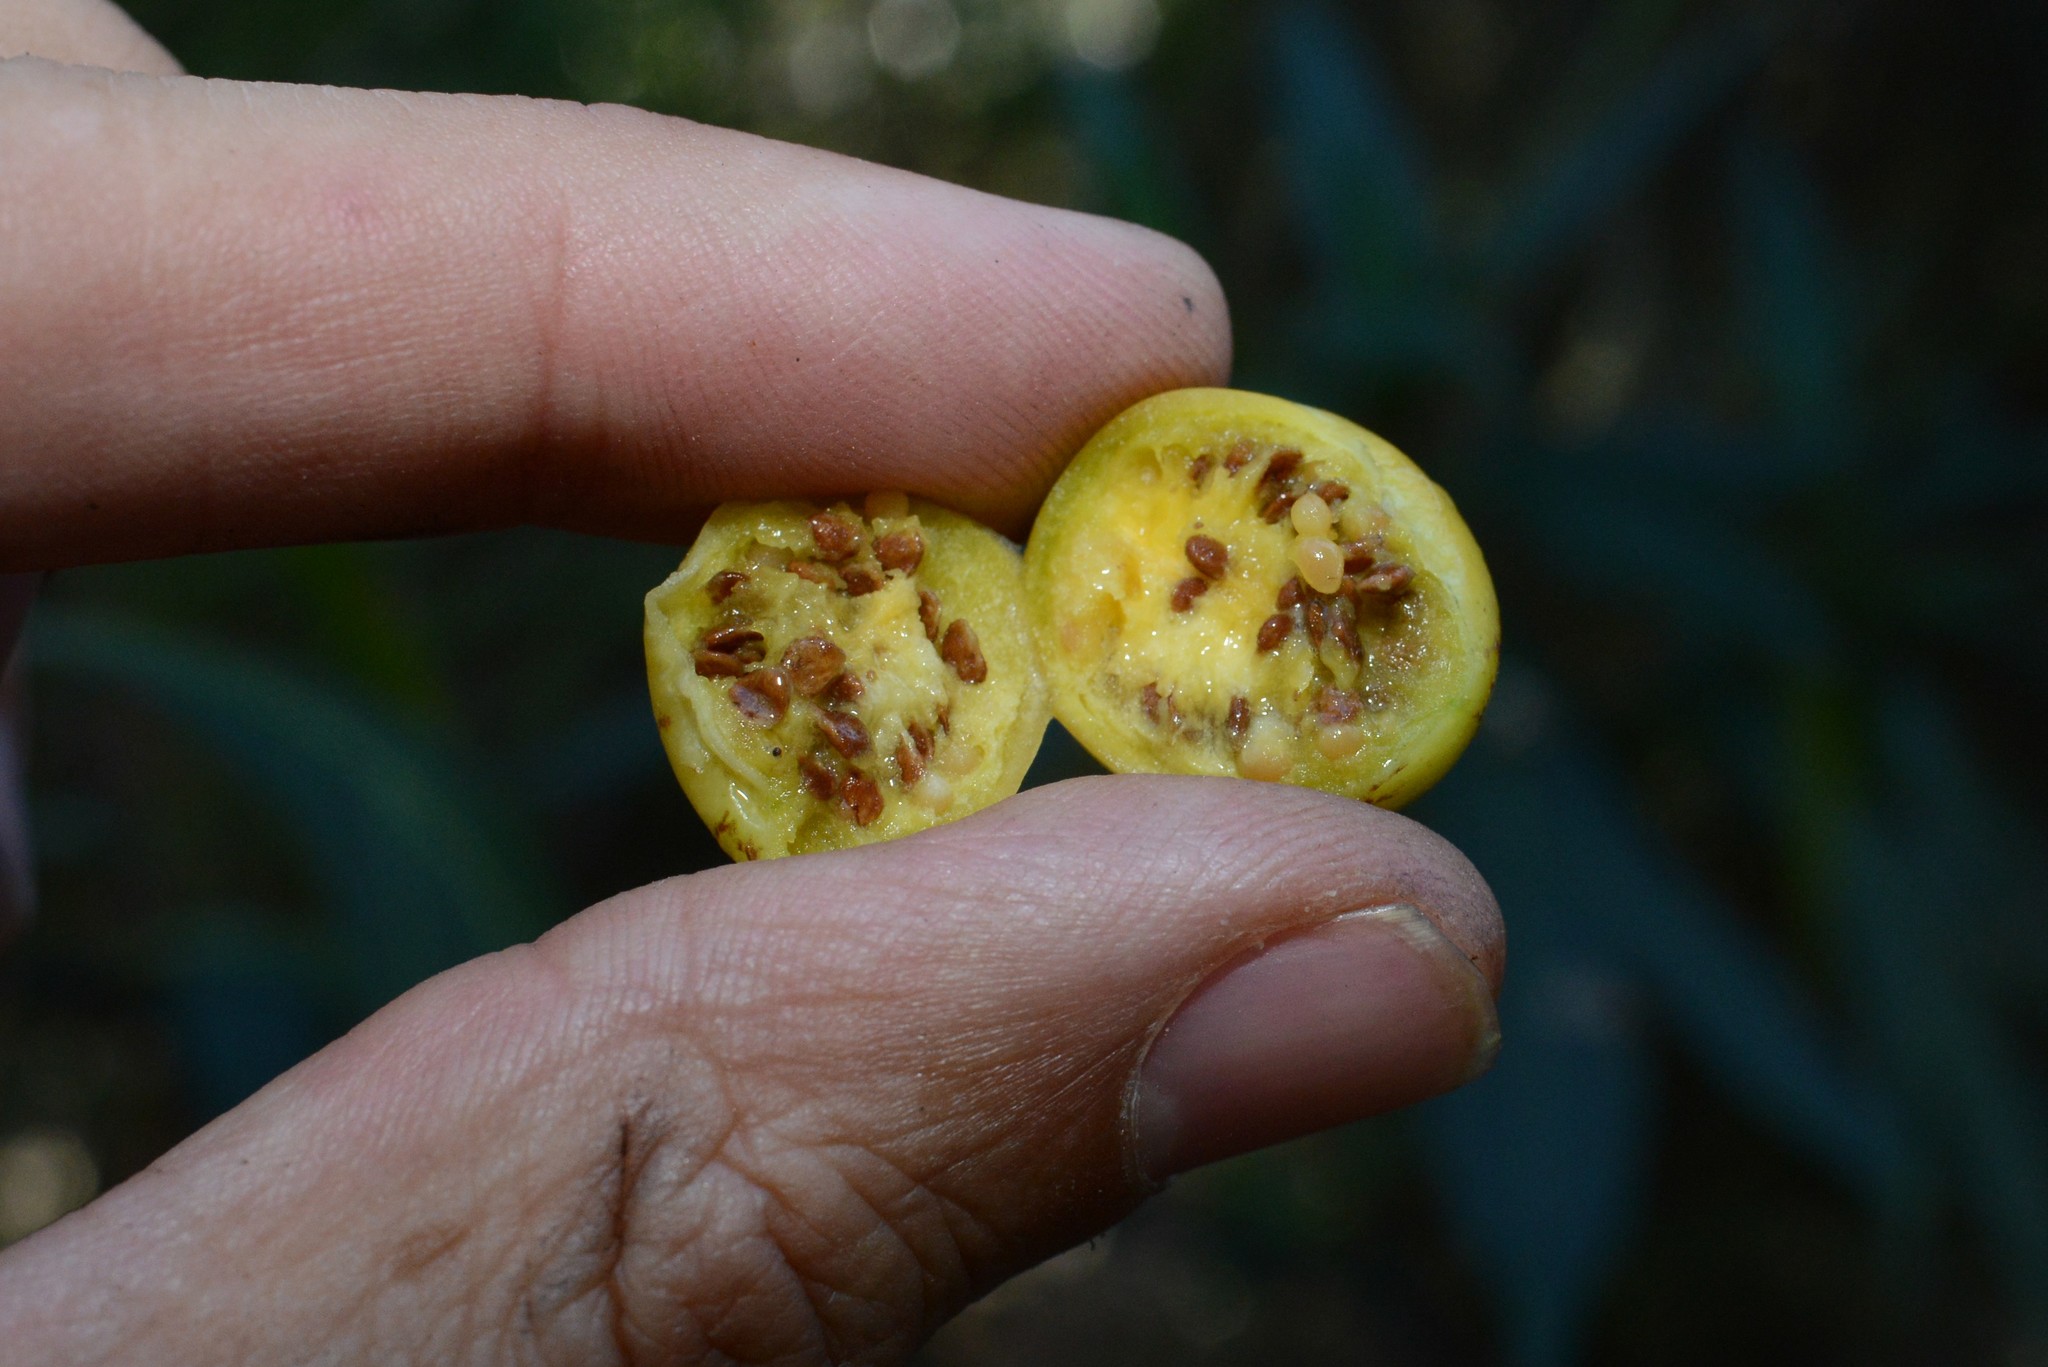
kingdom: Plantae
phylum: Tracheophyta
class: Magnoliopsida
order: Solanales
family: Solanaceae
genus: Solanum
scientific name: Solanum laciniatum
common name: Kangaroo-apple
